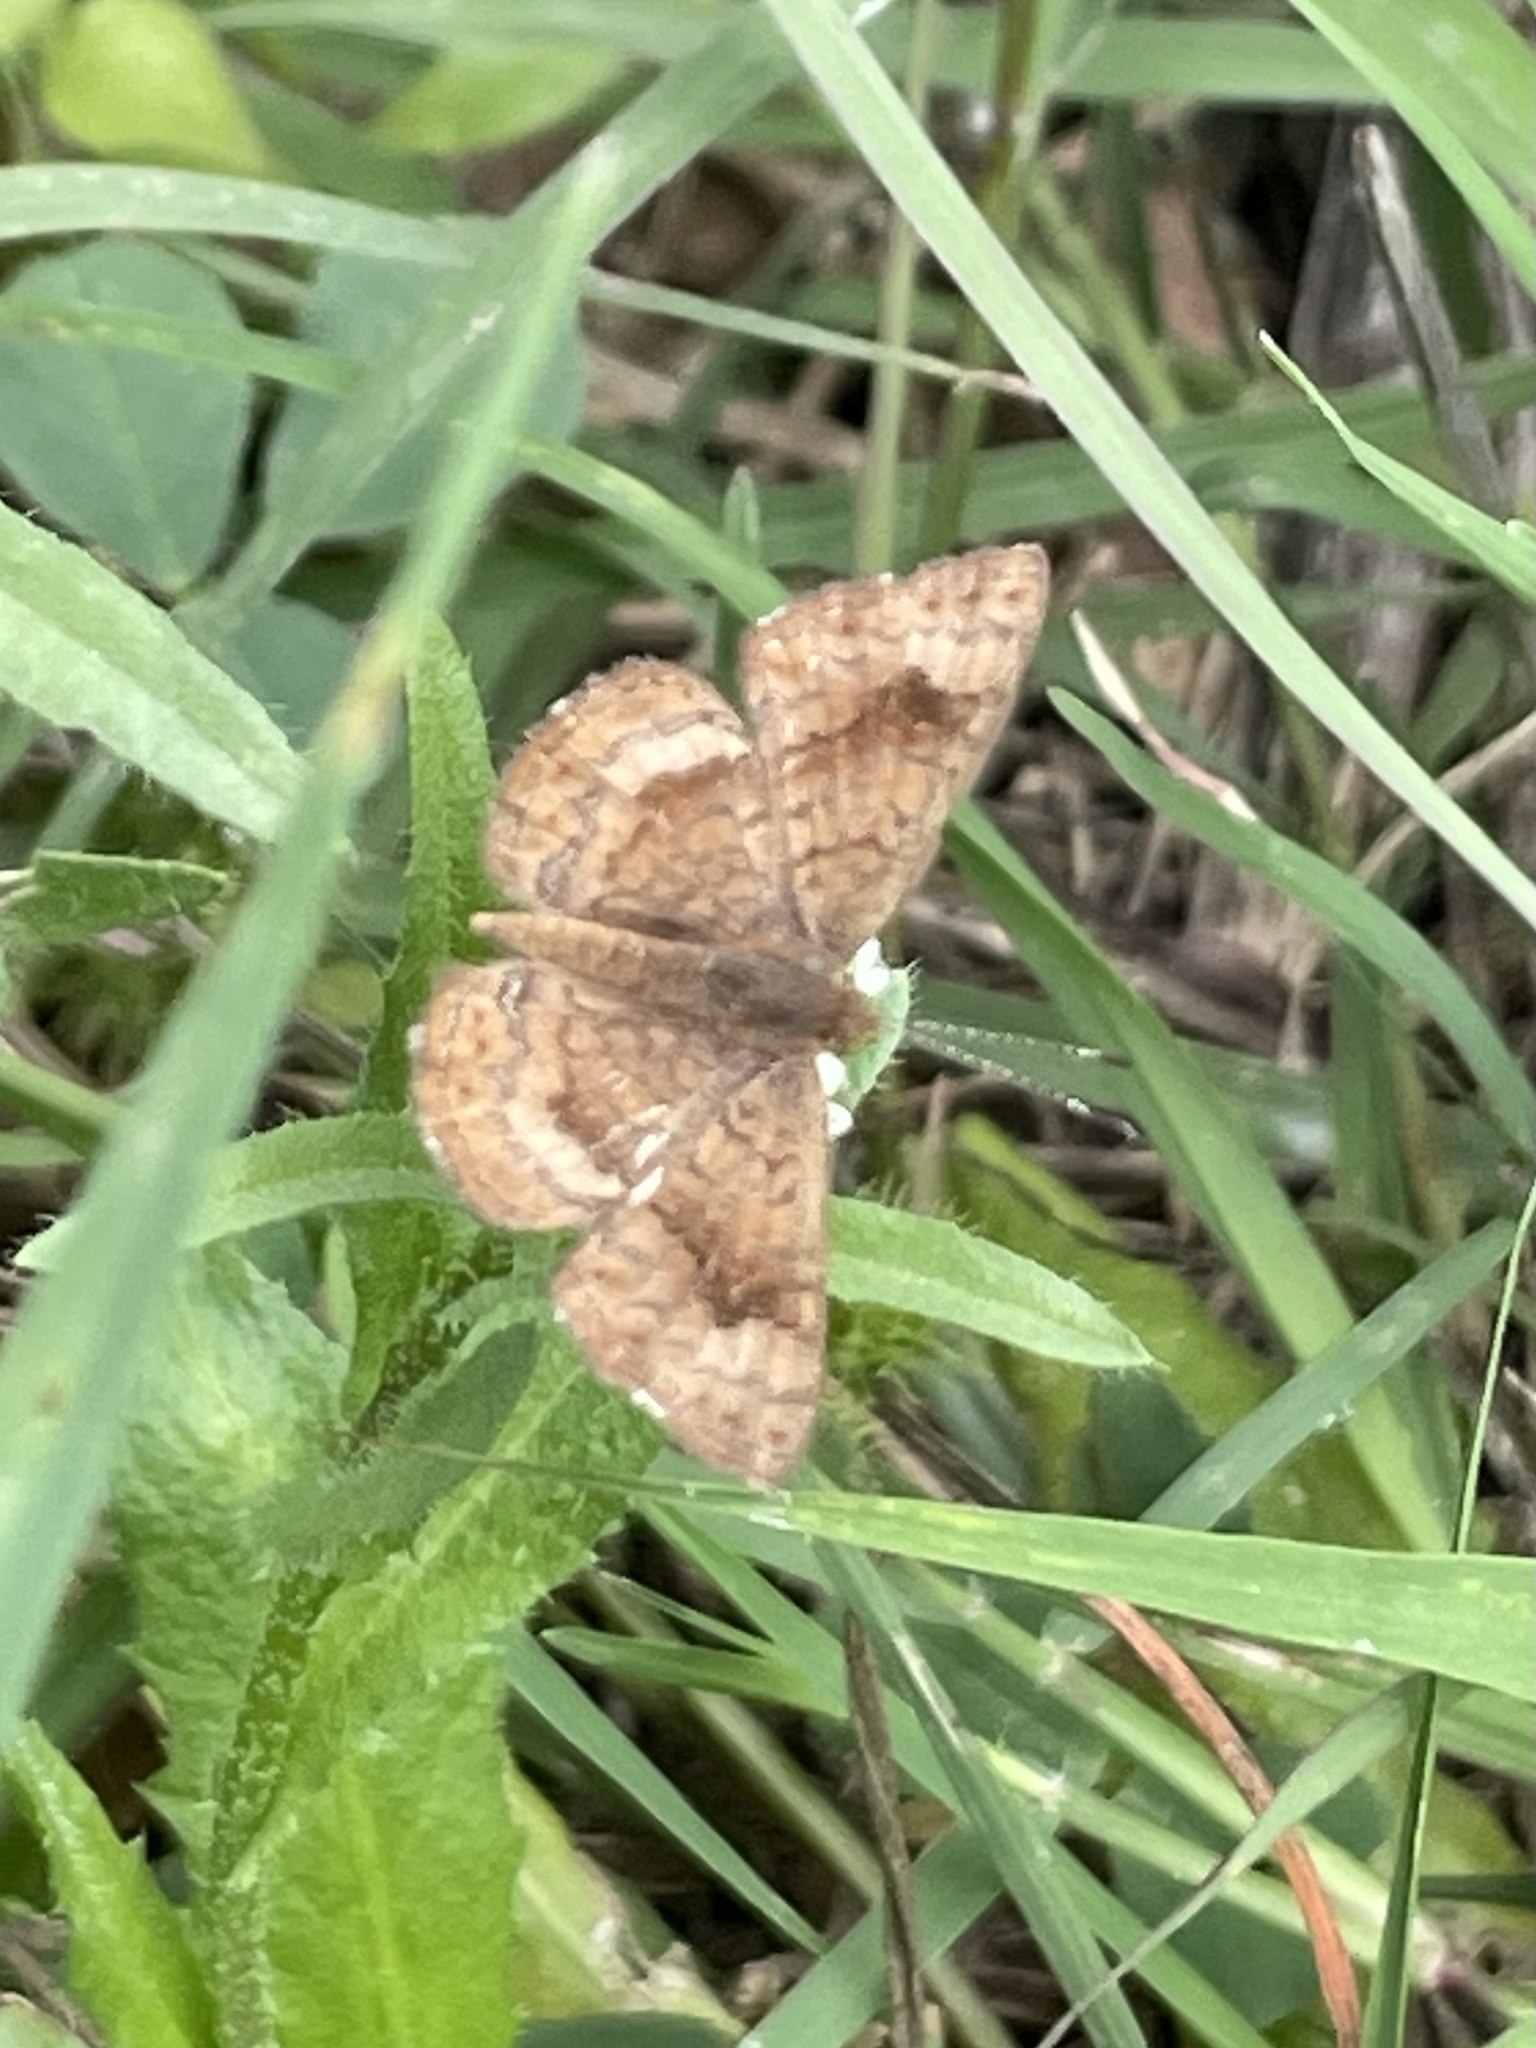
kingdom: Animalia
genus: Calephelis
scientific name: Calephelis nemesis
